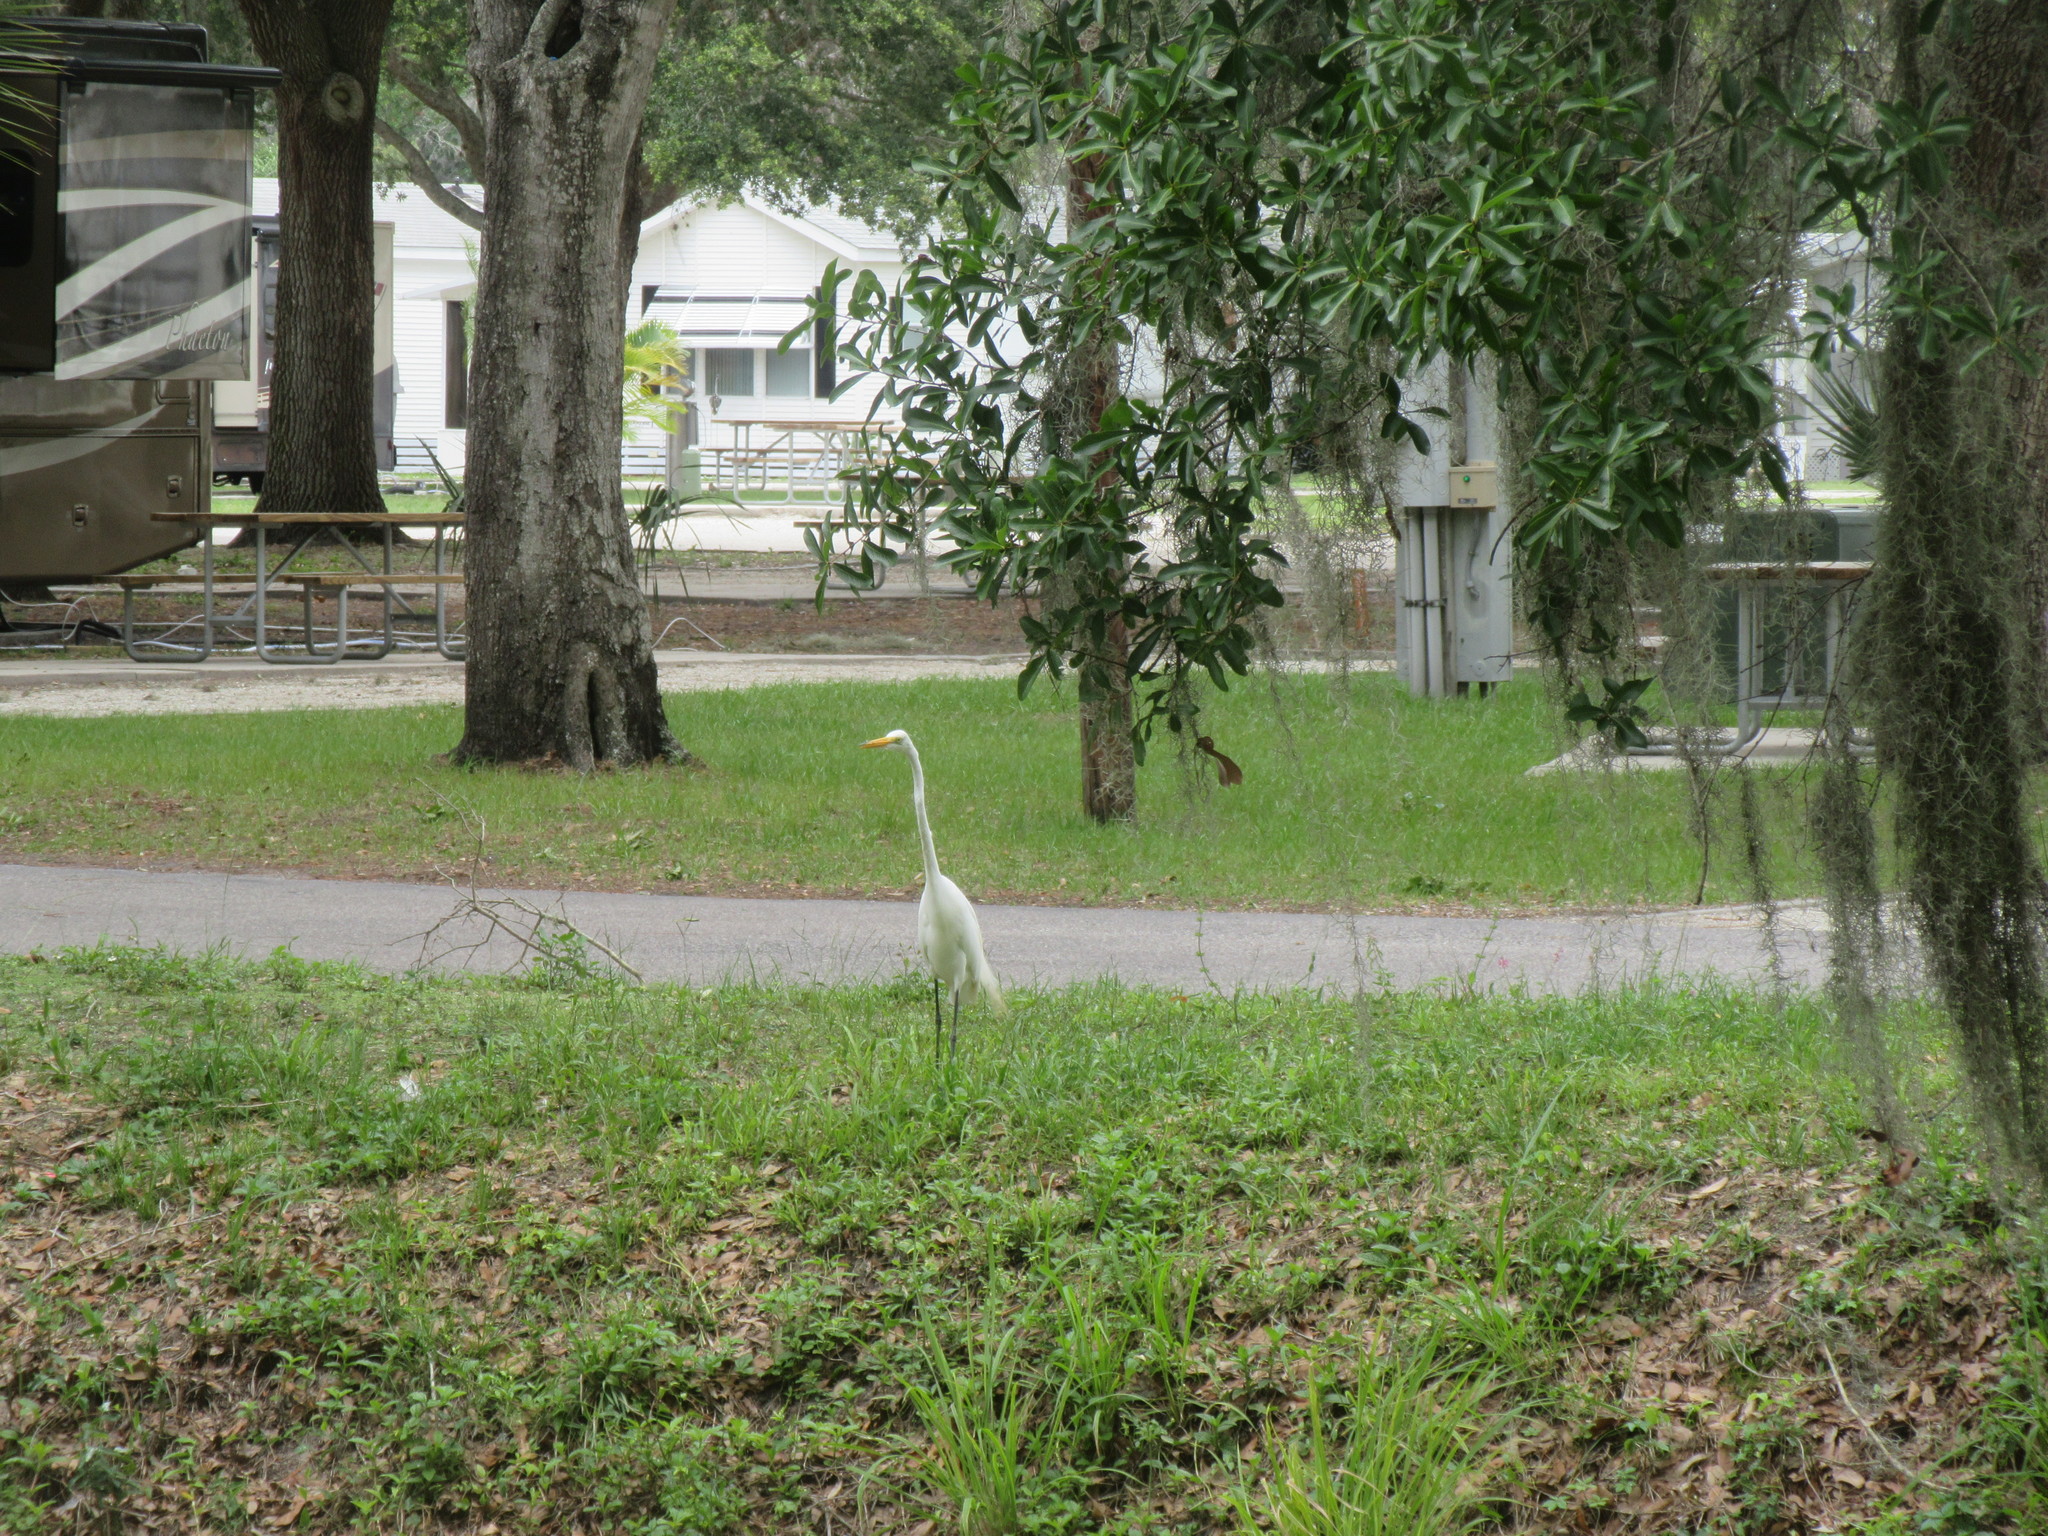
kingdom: Animalia
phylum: Chordata
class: Aves
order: Pelecaniformes
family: Ardeidae
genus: Ardea
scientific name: Ardea alba
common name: Great egret
